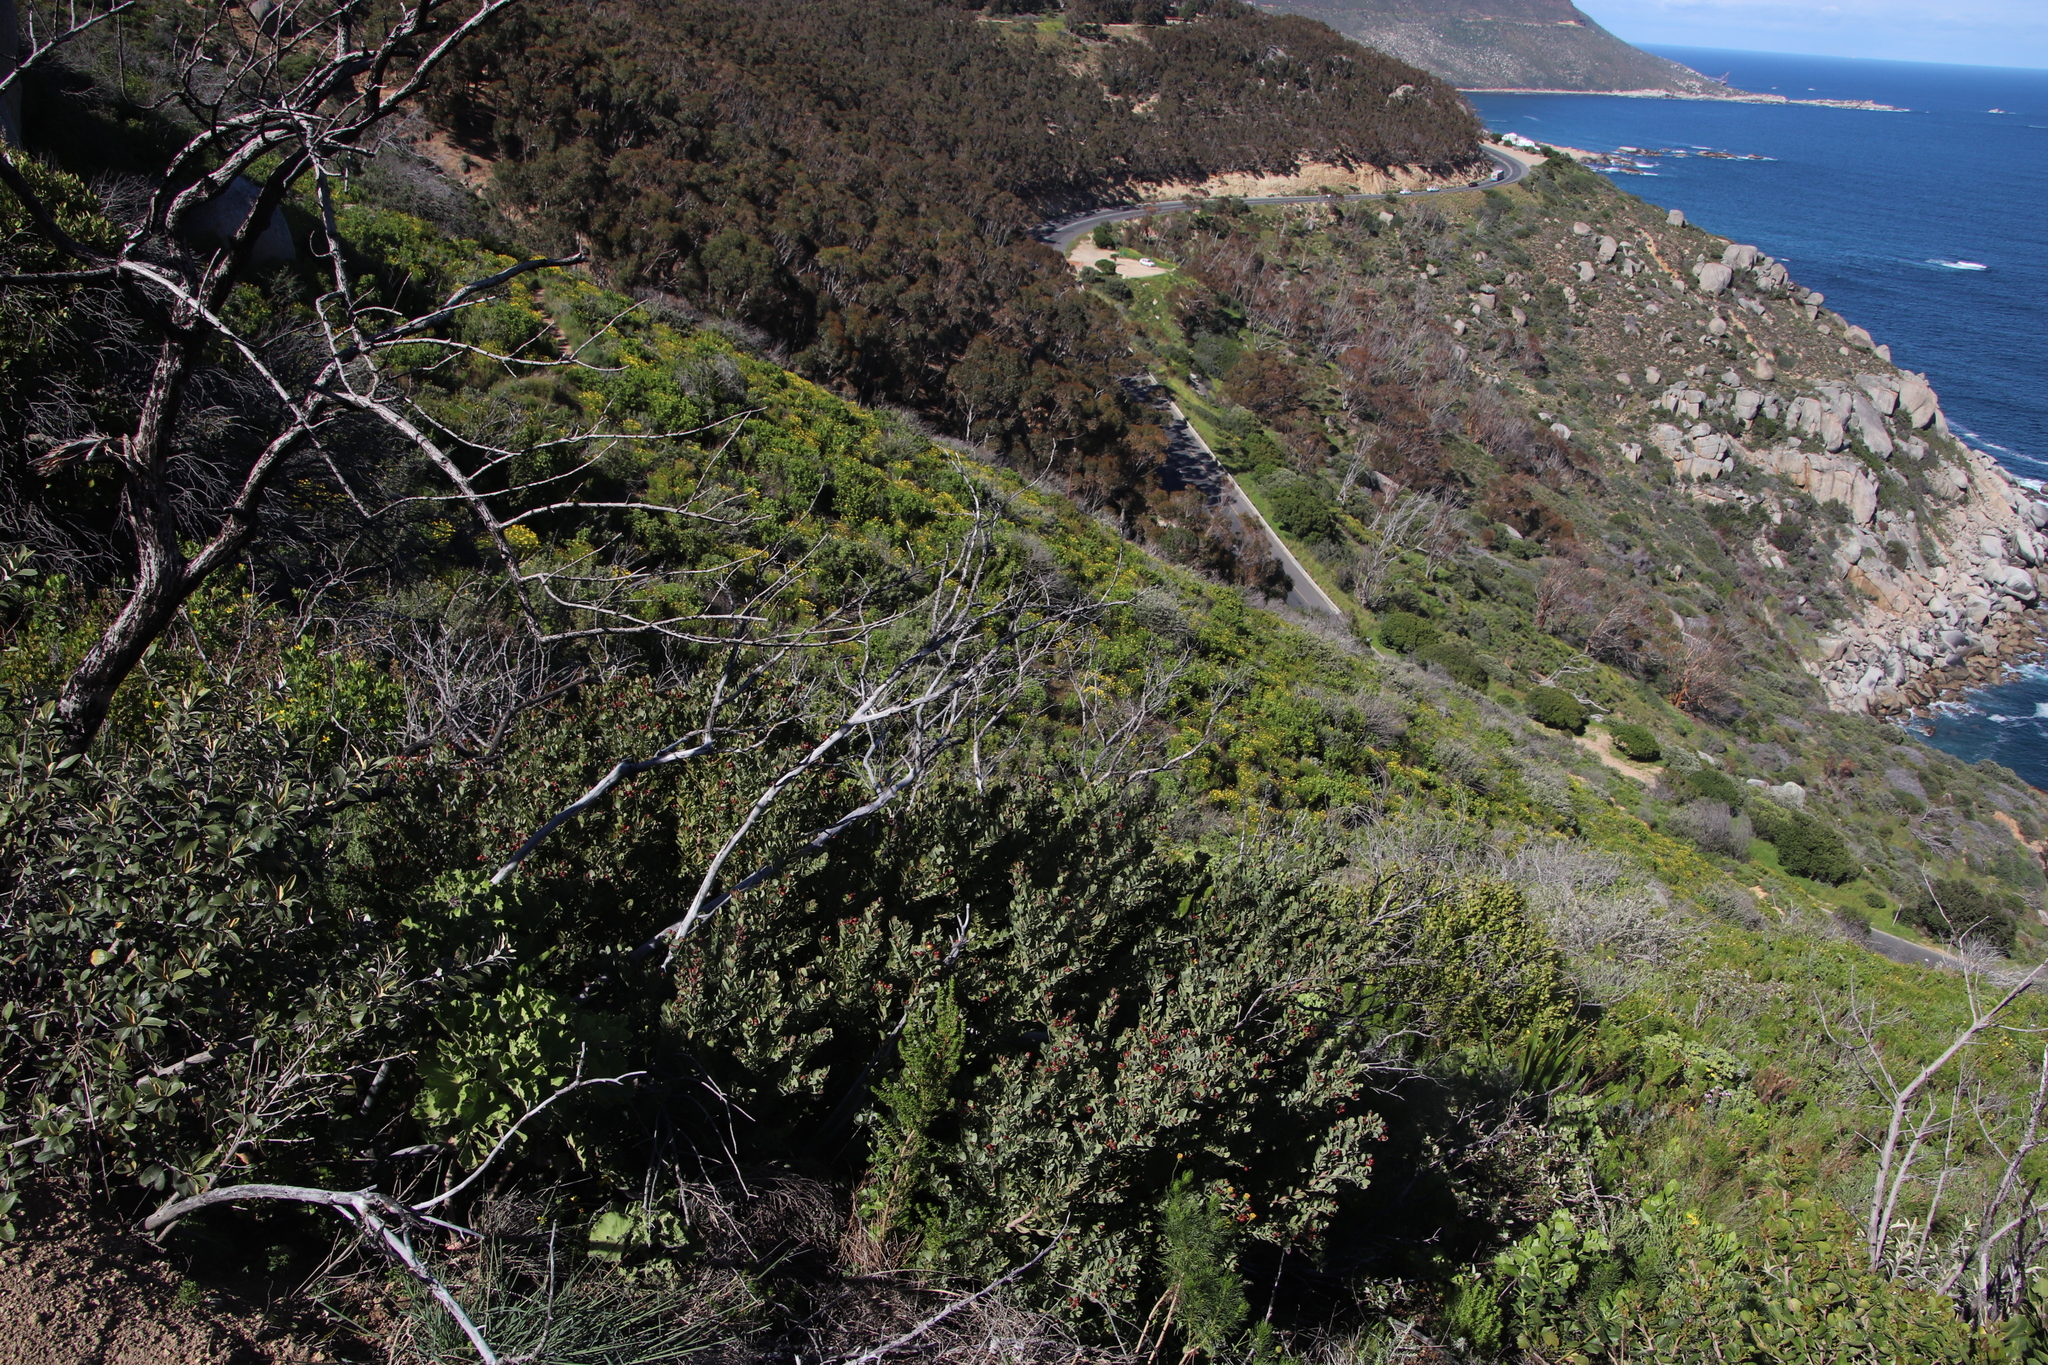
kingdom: Plantae
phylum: Tracheophyta
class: Magnoliopsida
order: Santalales
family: Santalaceae
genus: Osyris
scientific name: Osyris compressa
